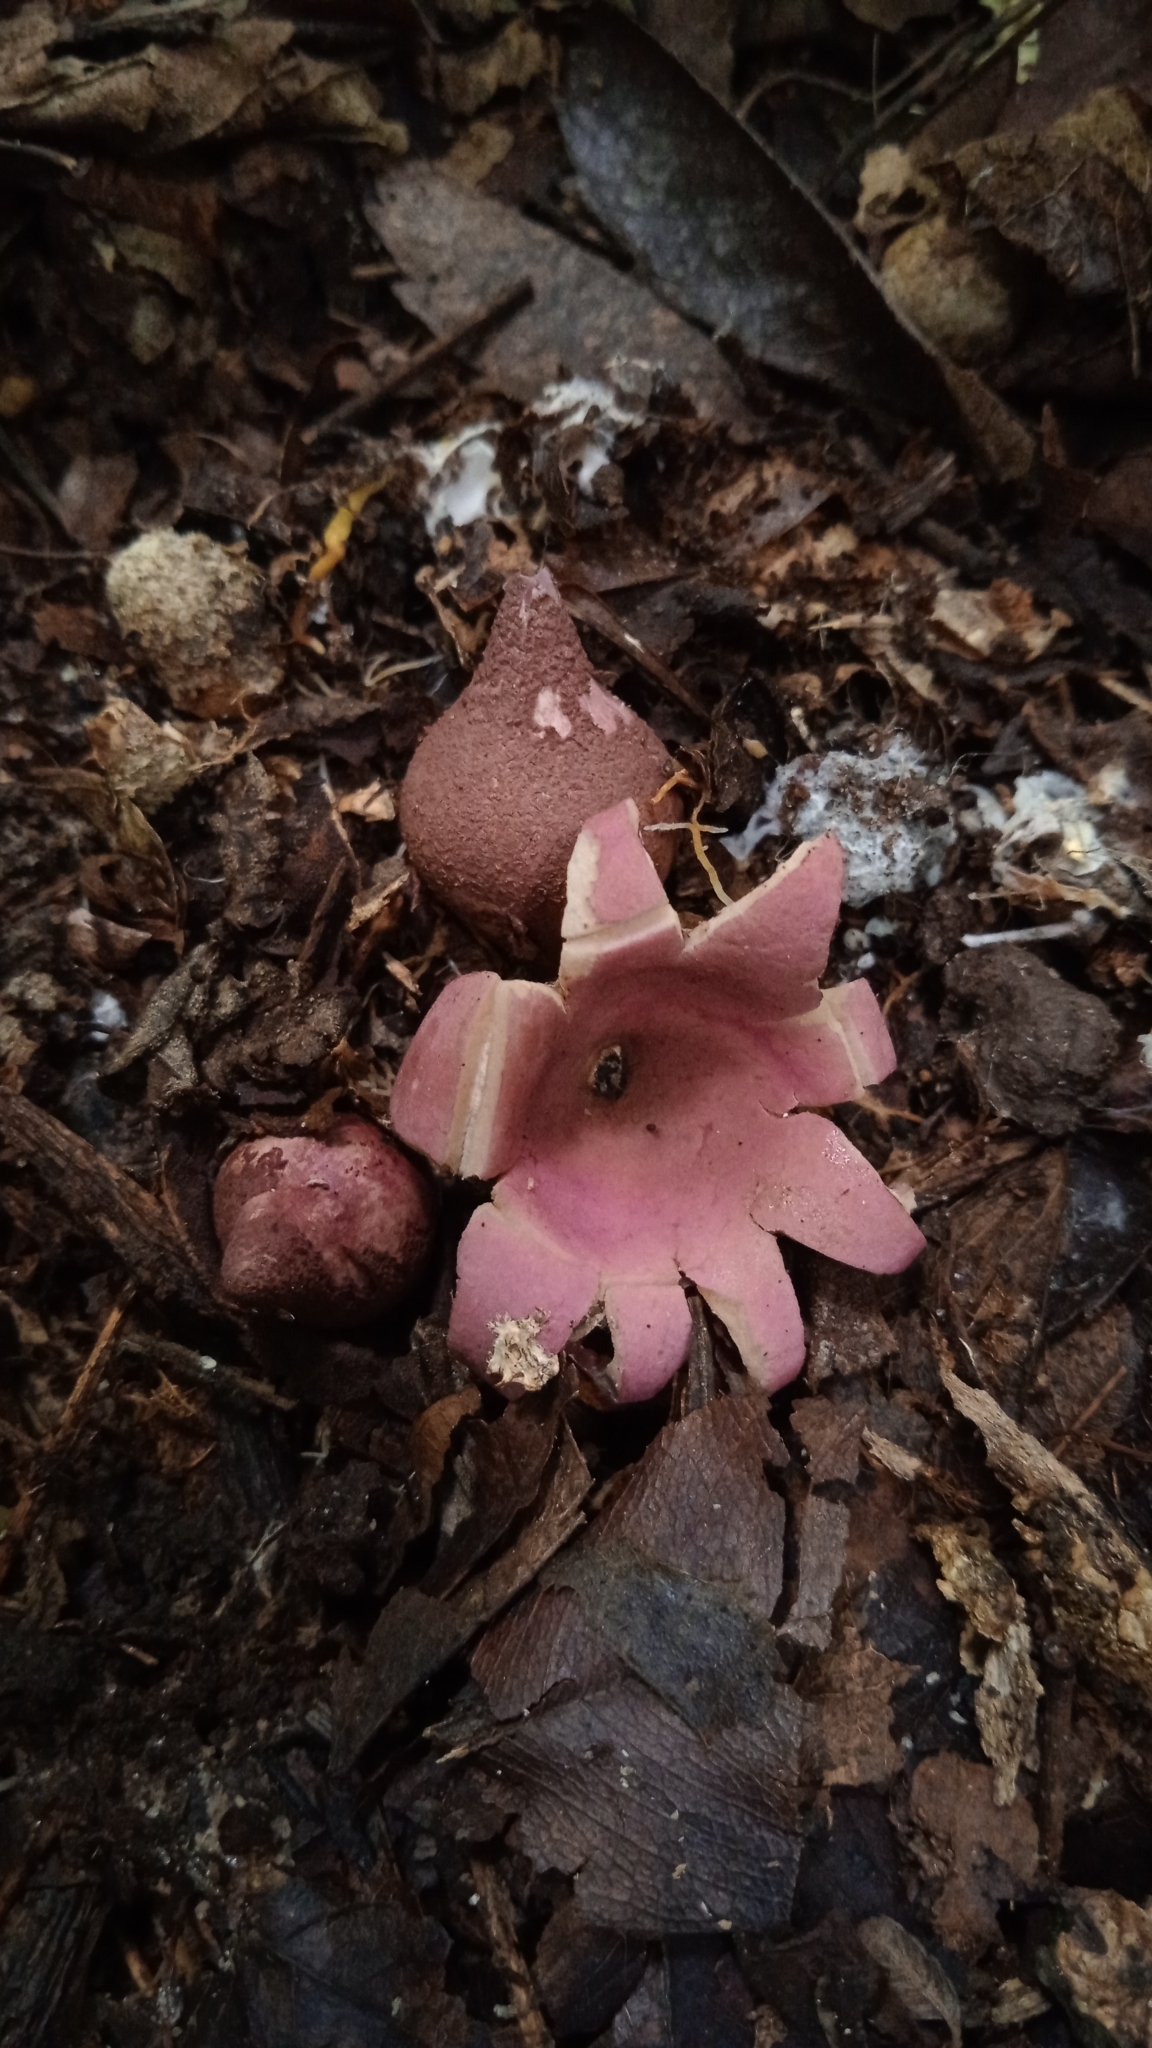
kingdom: Fungi
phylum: Basidiomycota
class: Agaricomycetes
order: Geastrales
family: Geastraceae
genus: Geastrum
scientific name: Geastrum violaceum
